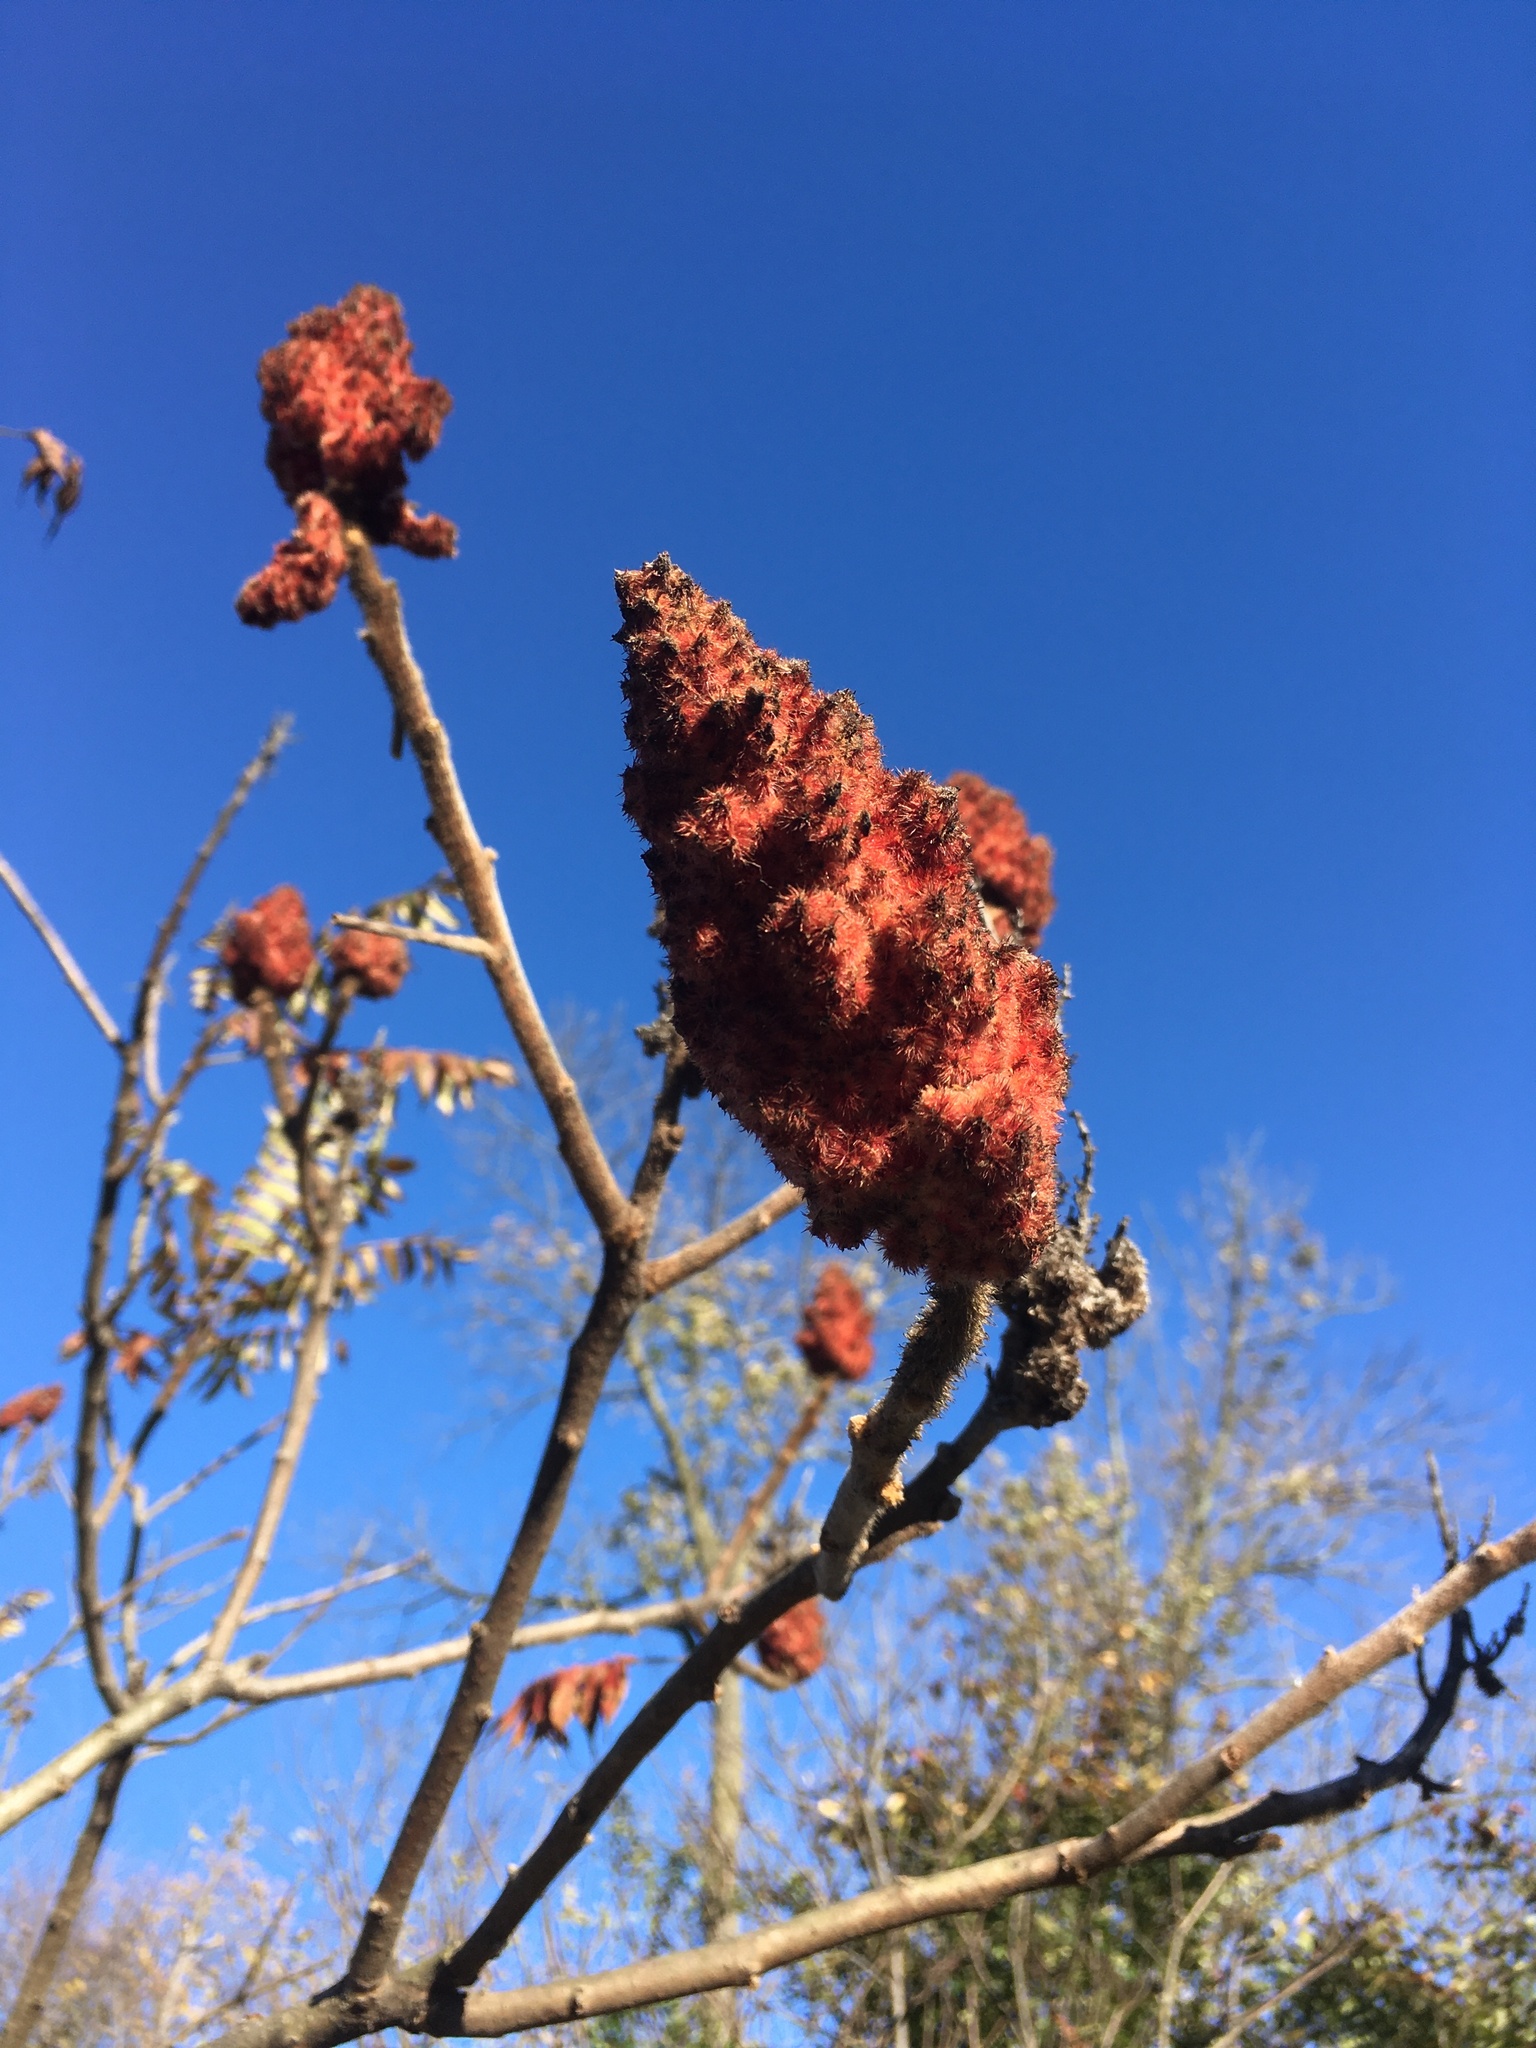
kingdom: Plantae
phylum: Tracheophyta
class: Magnoliopsida
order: Sapindales
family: Anacardiaceae
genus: Rhus
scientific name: Rhus typhina
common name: Staghorn sumac
